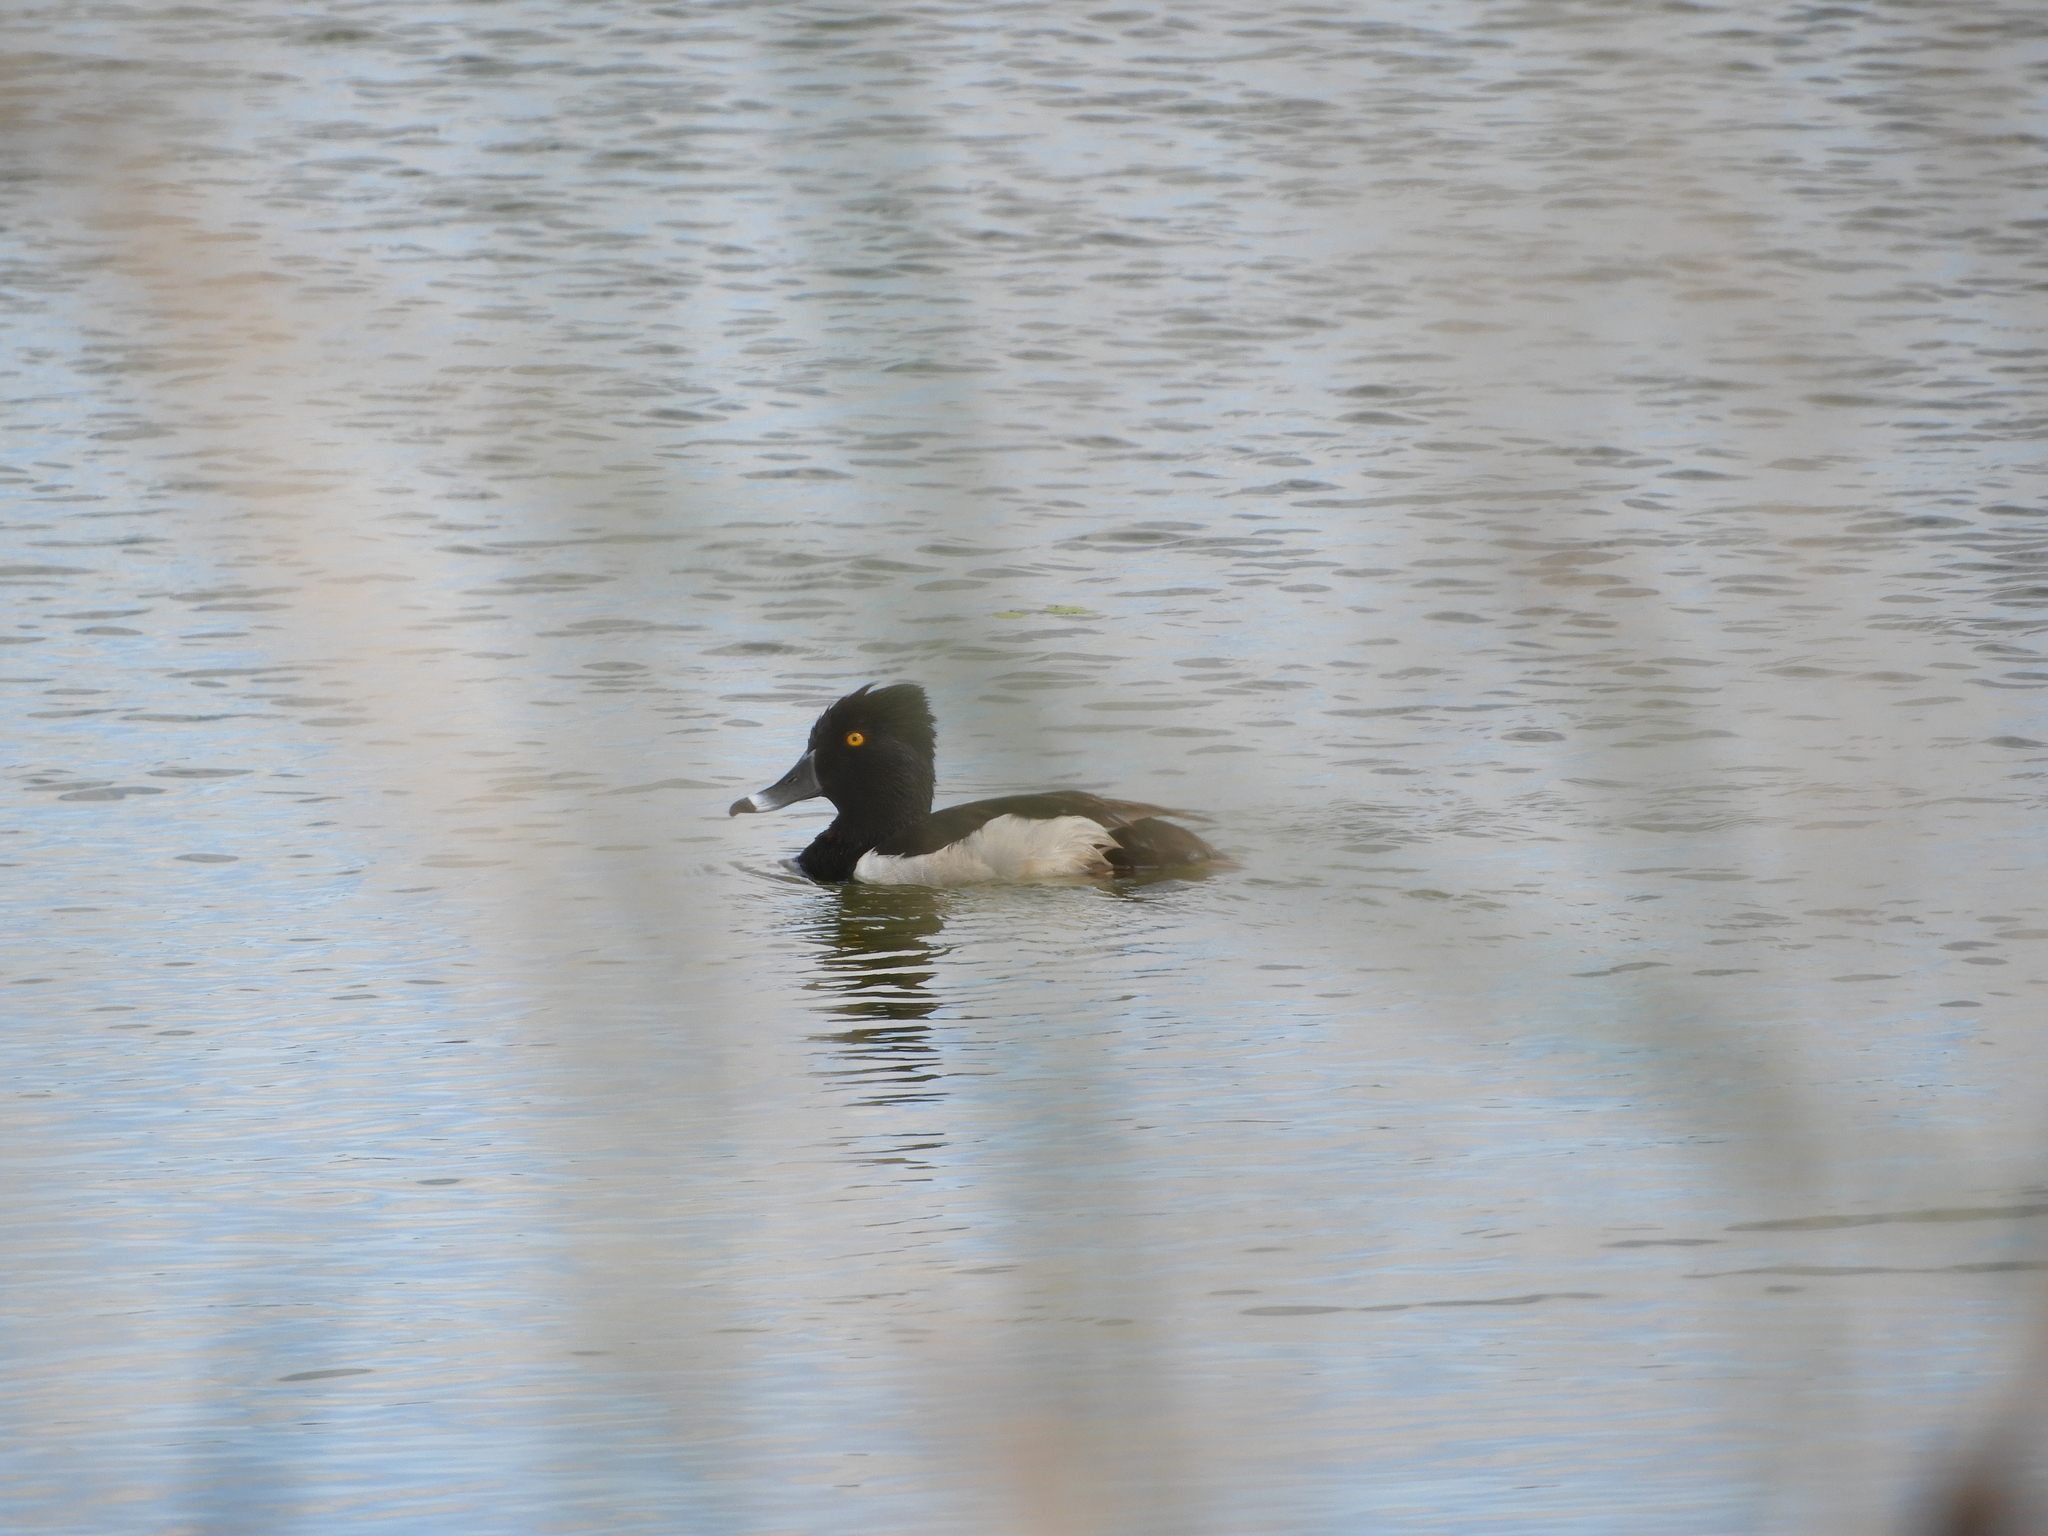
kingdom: Animalia
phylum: Chordata
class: Aves
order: Anseriformes
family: Anatidae
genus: Aythya
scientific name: Aythya collaris
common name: Ring-necked duck
